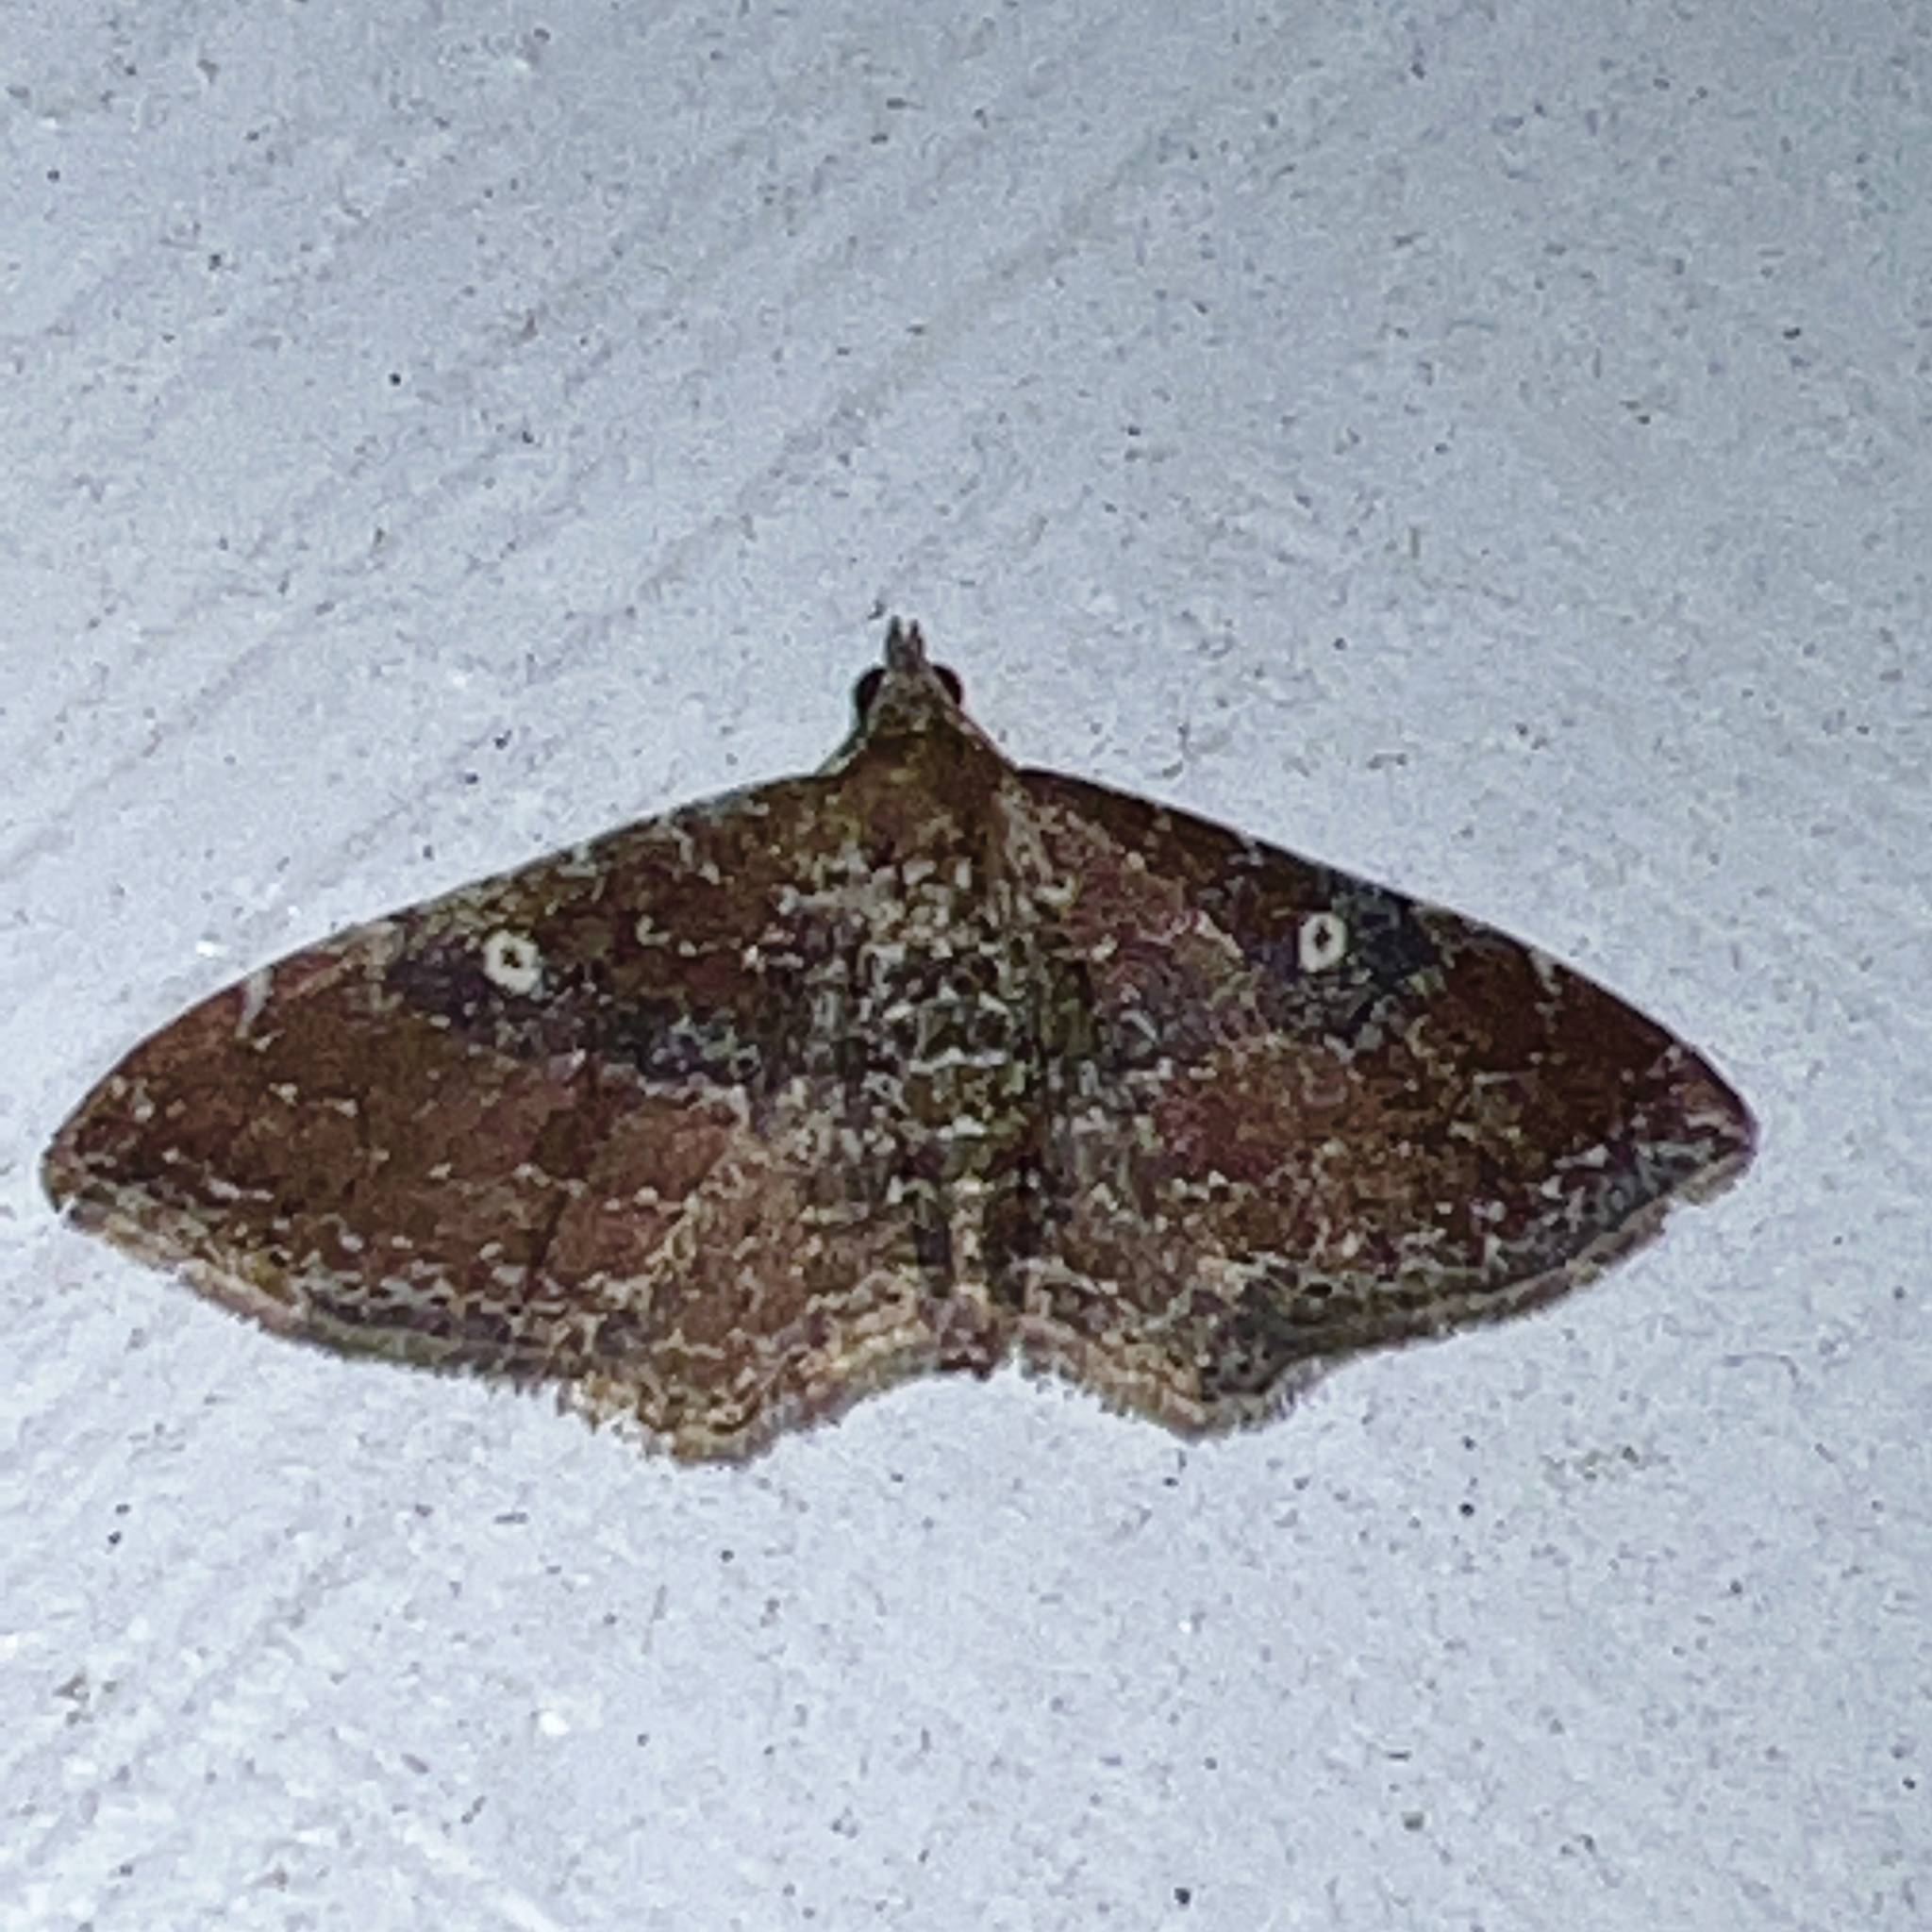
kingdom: Animalia
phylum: Arthropoda
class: Insecta
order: Lepidoptera
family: Geometridae
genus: Orthonama
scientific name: Orthonama obstipata
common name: The gem
